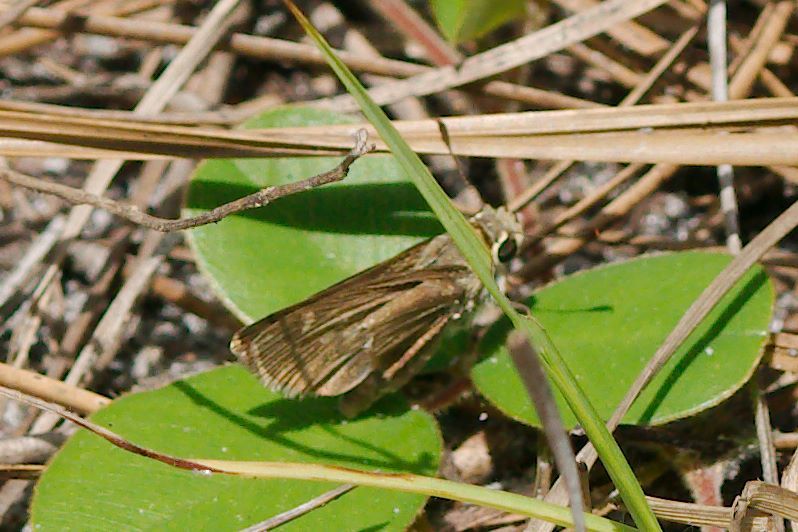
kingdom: Animalia
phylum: Arthropoda
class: Insecta
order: Lepidoptera
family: Hesperiidae
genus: Polites
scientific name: Polites vibex
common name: Whirlabout
